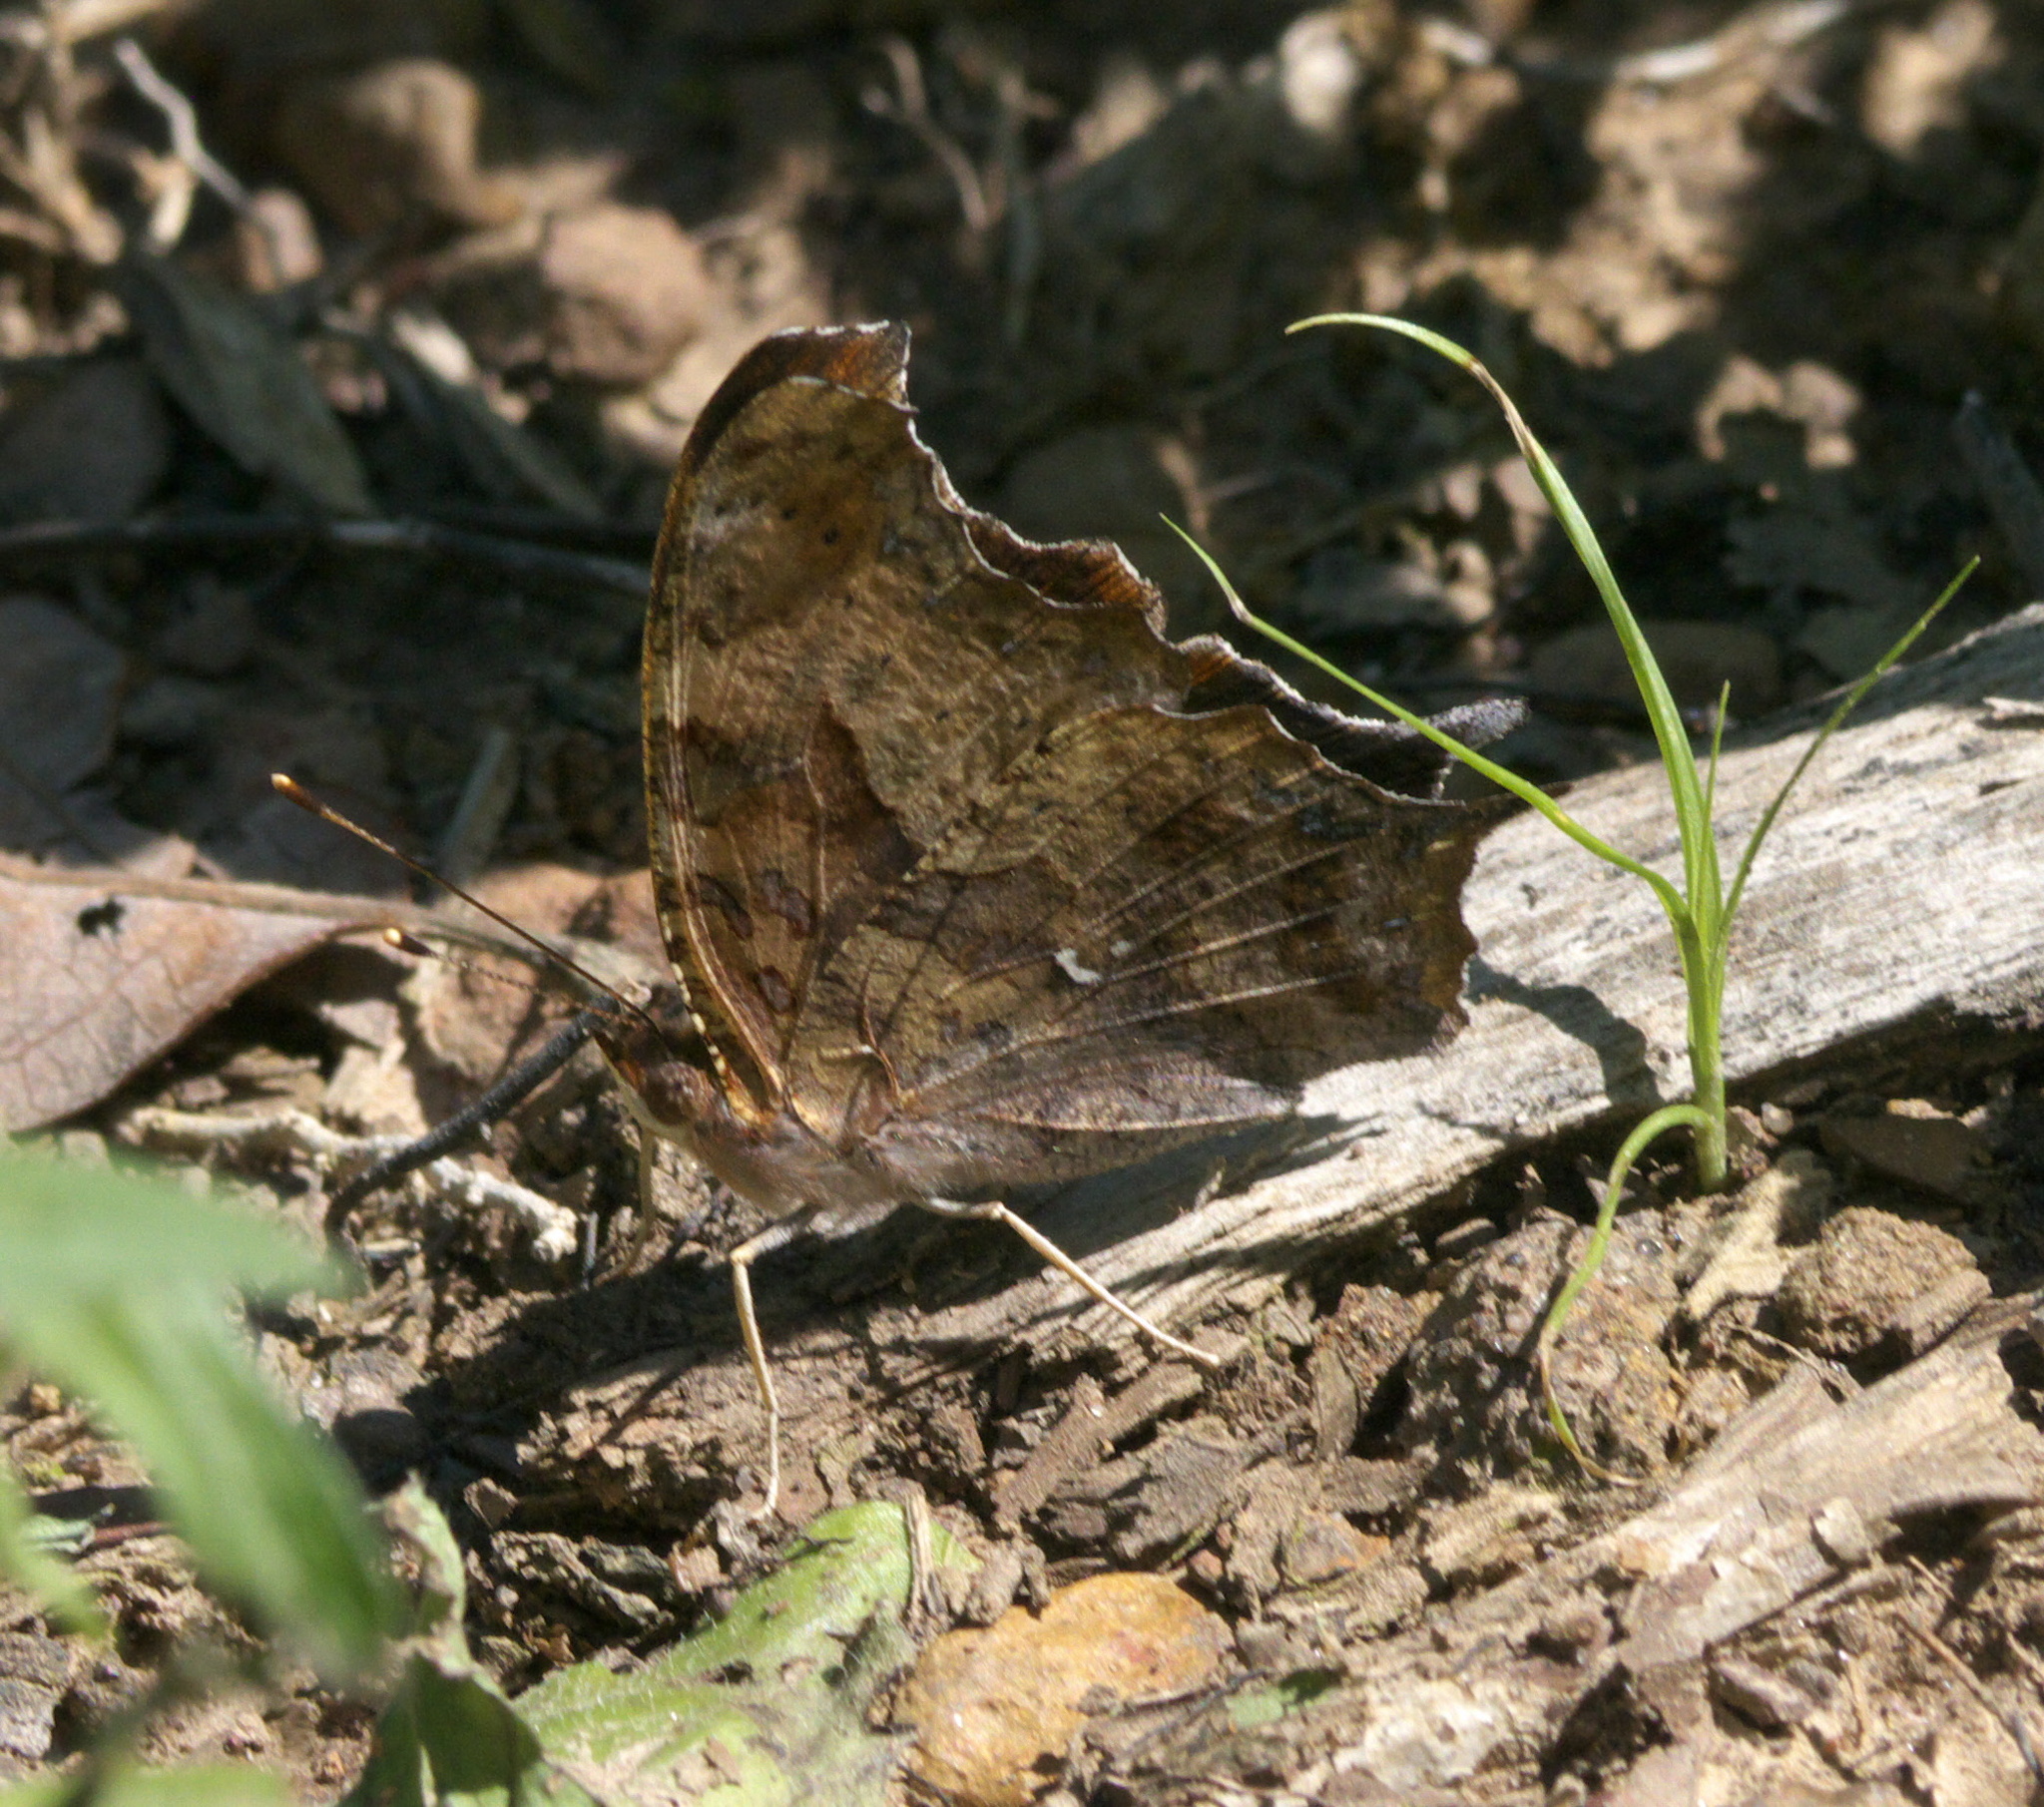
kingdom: Animalia
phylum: Arthropoda
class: Insecta
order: Lepidoptera
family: Nymphalidae
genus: Polygonia
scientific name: Polygonia interrogationis
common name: Question mark
